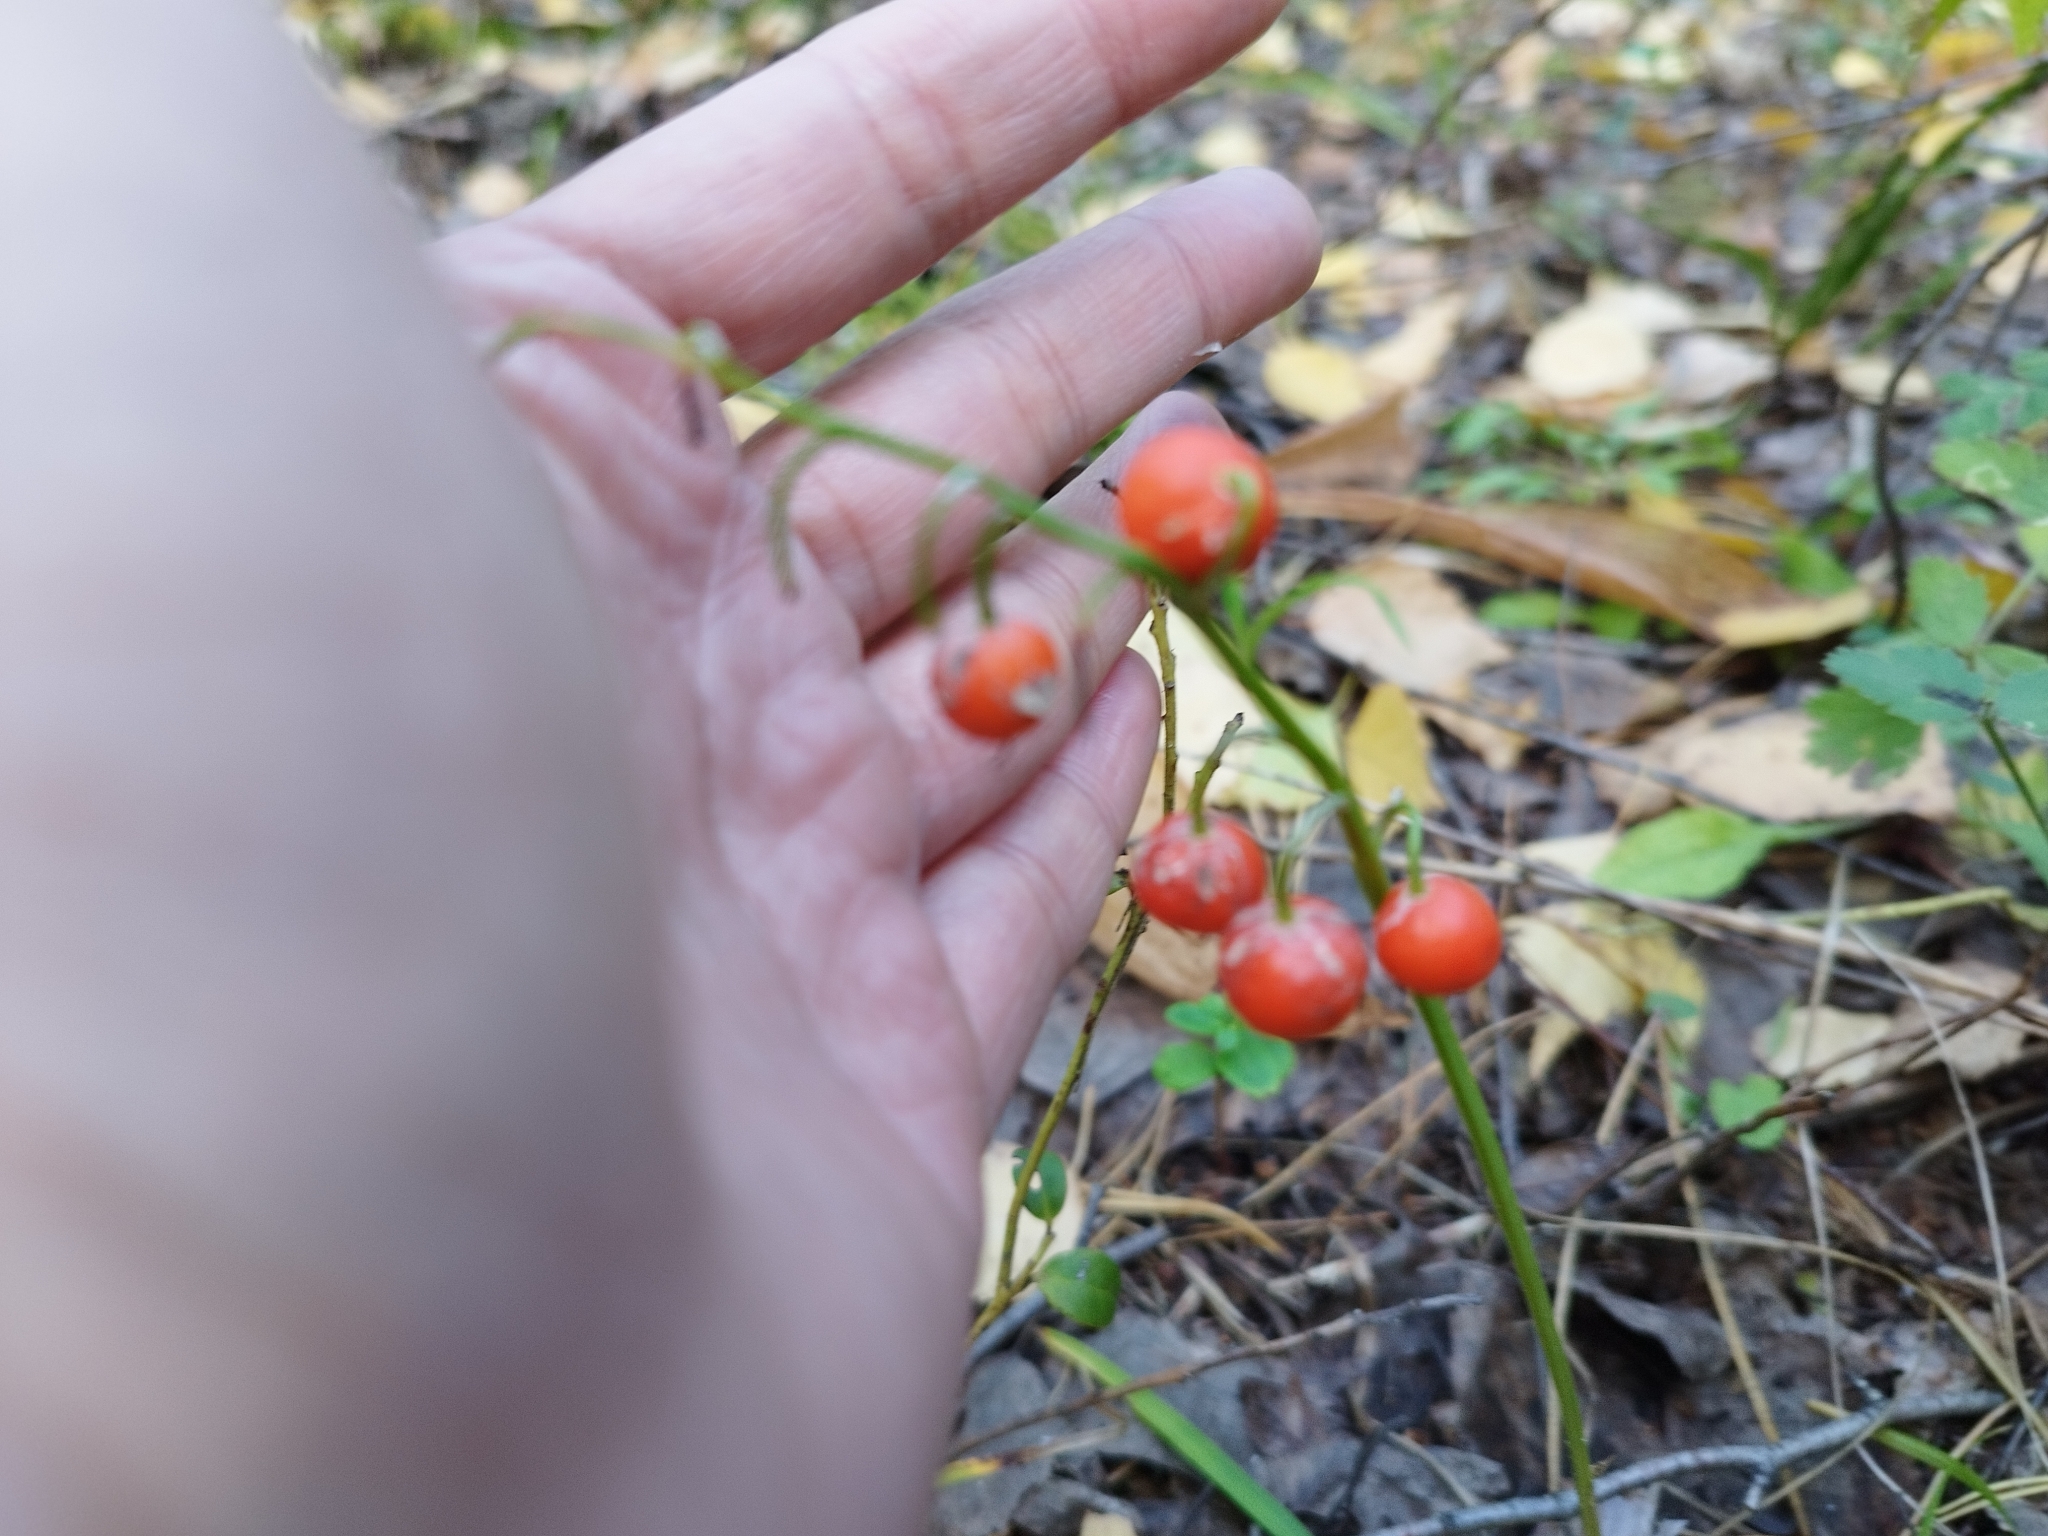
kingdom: Plantae
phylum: Tracheophyta
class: Liliopsida
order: Asparagales
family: Asparagaceae
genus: Convallaria
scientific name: Convallaria majalis
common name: Lily-of-the-valley
